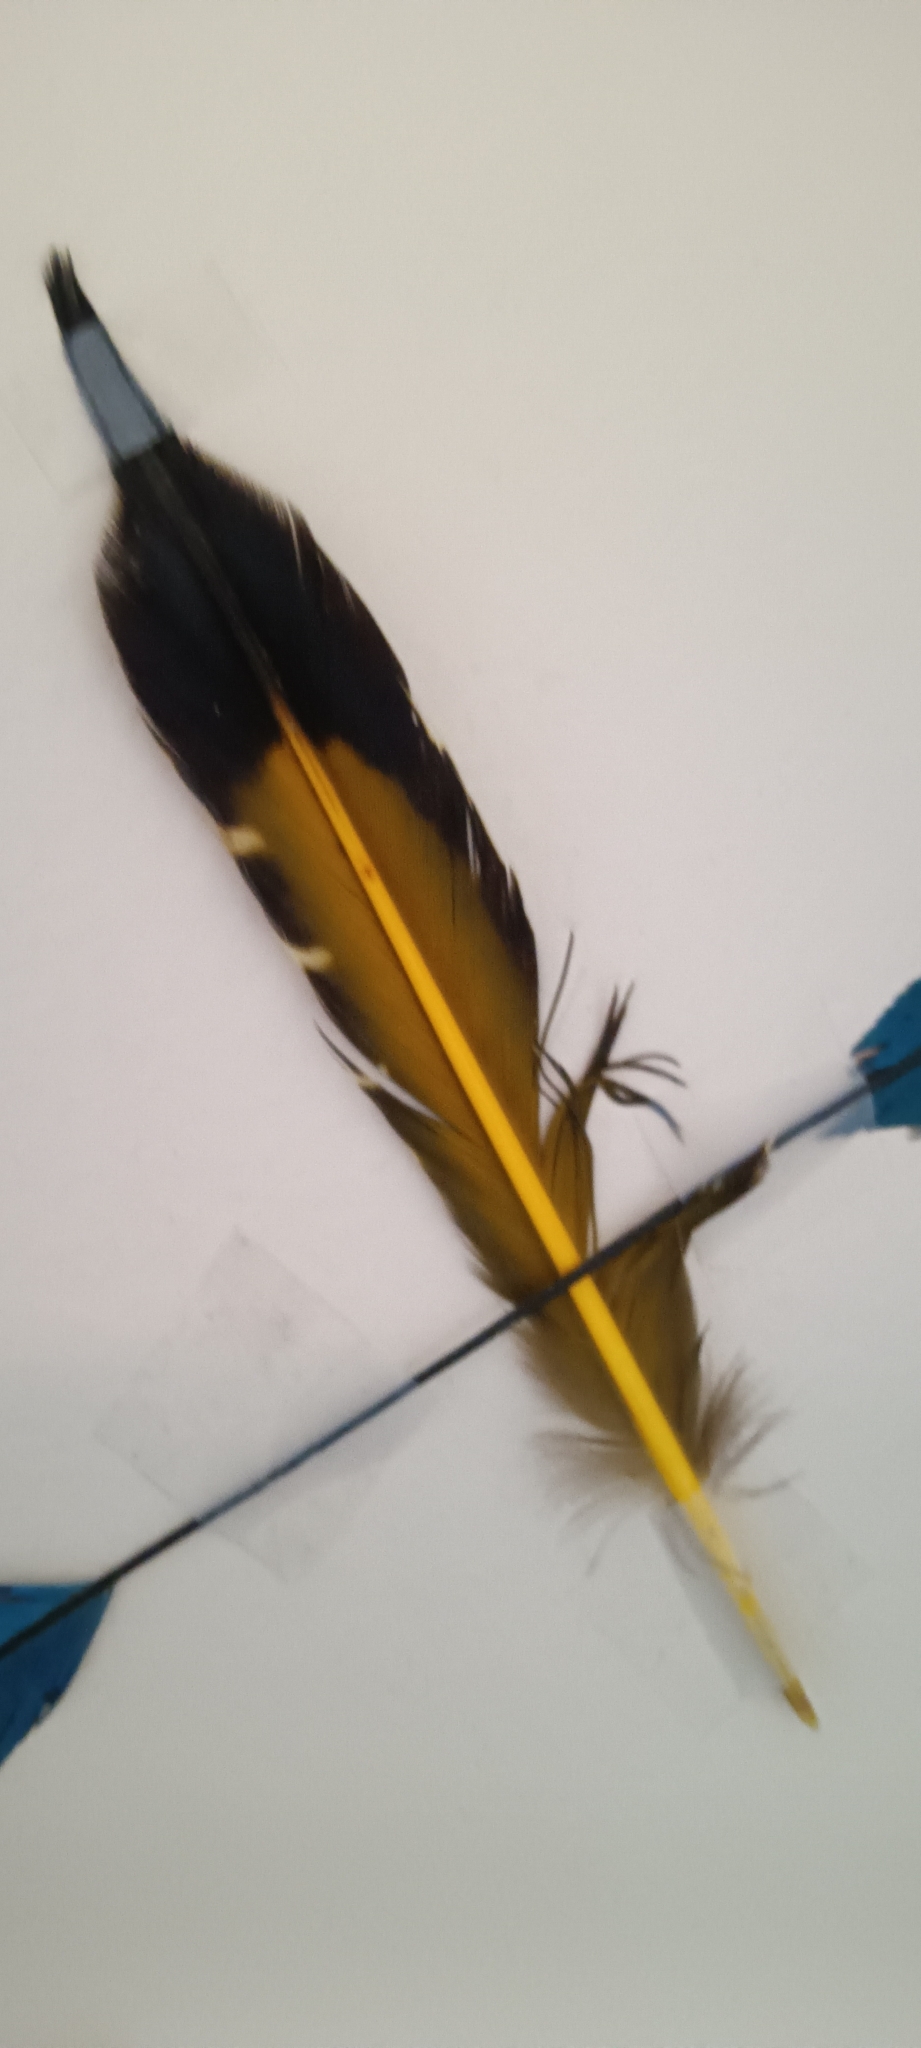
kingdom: Animalia
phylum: Chordata
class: Aves
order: Piciformes
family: Picidae
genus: Colaptes
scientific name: Colaptes auratus
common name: Northern flicker
